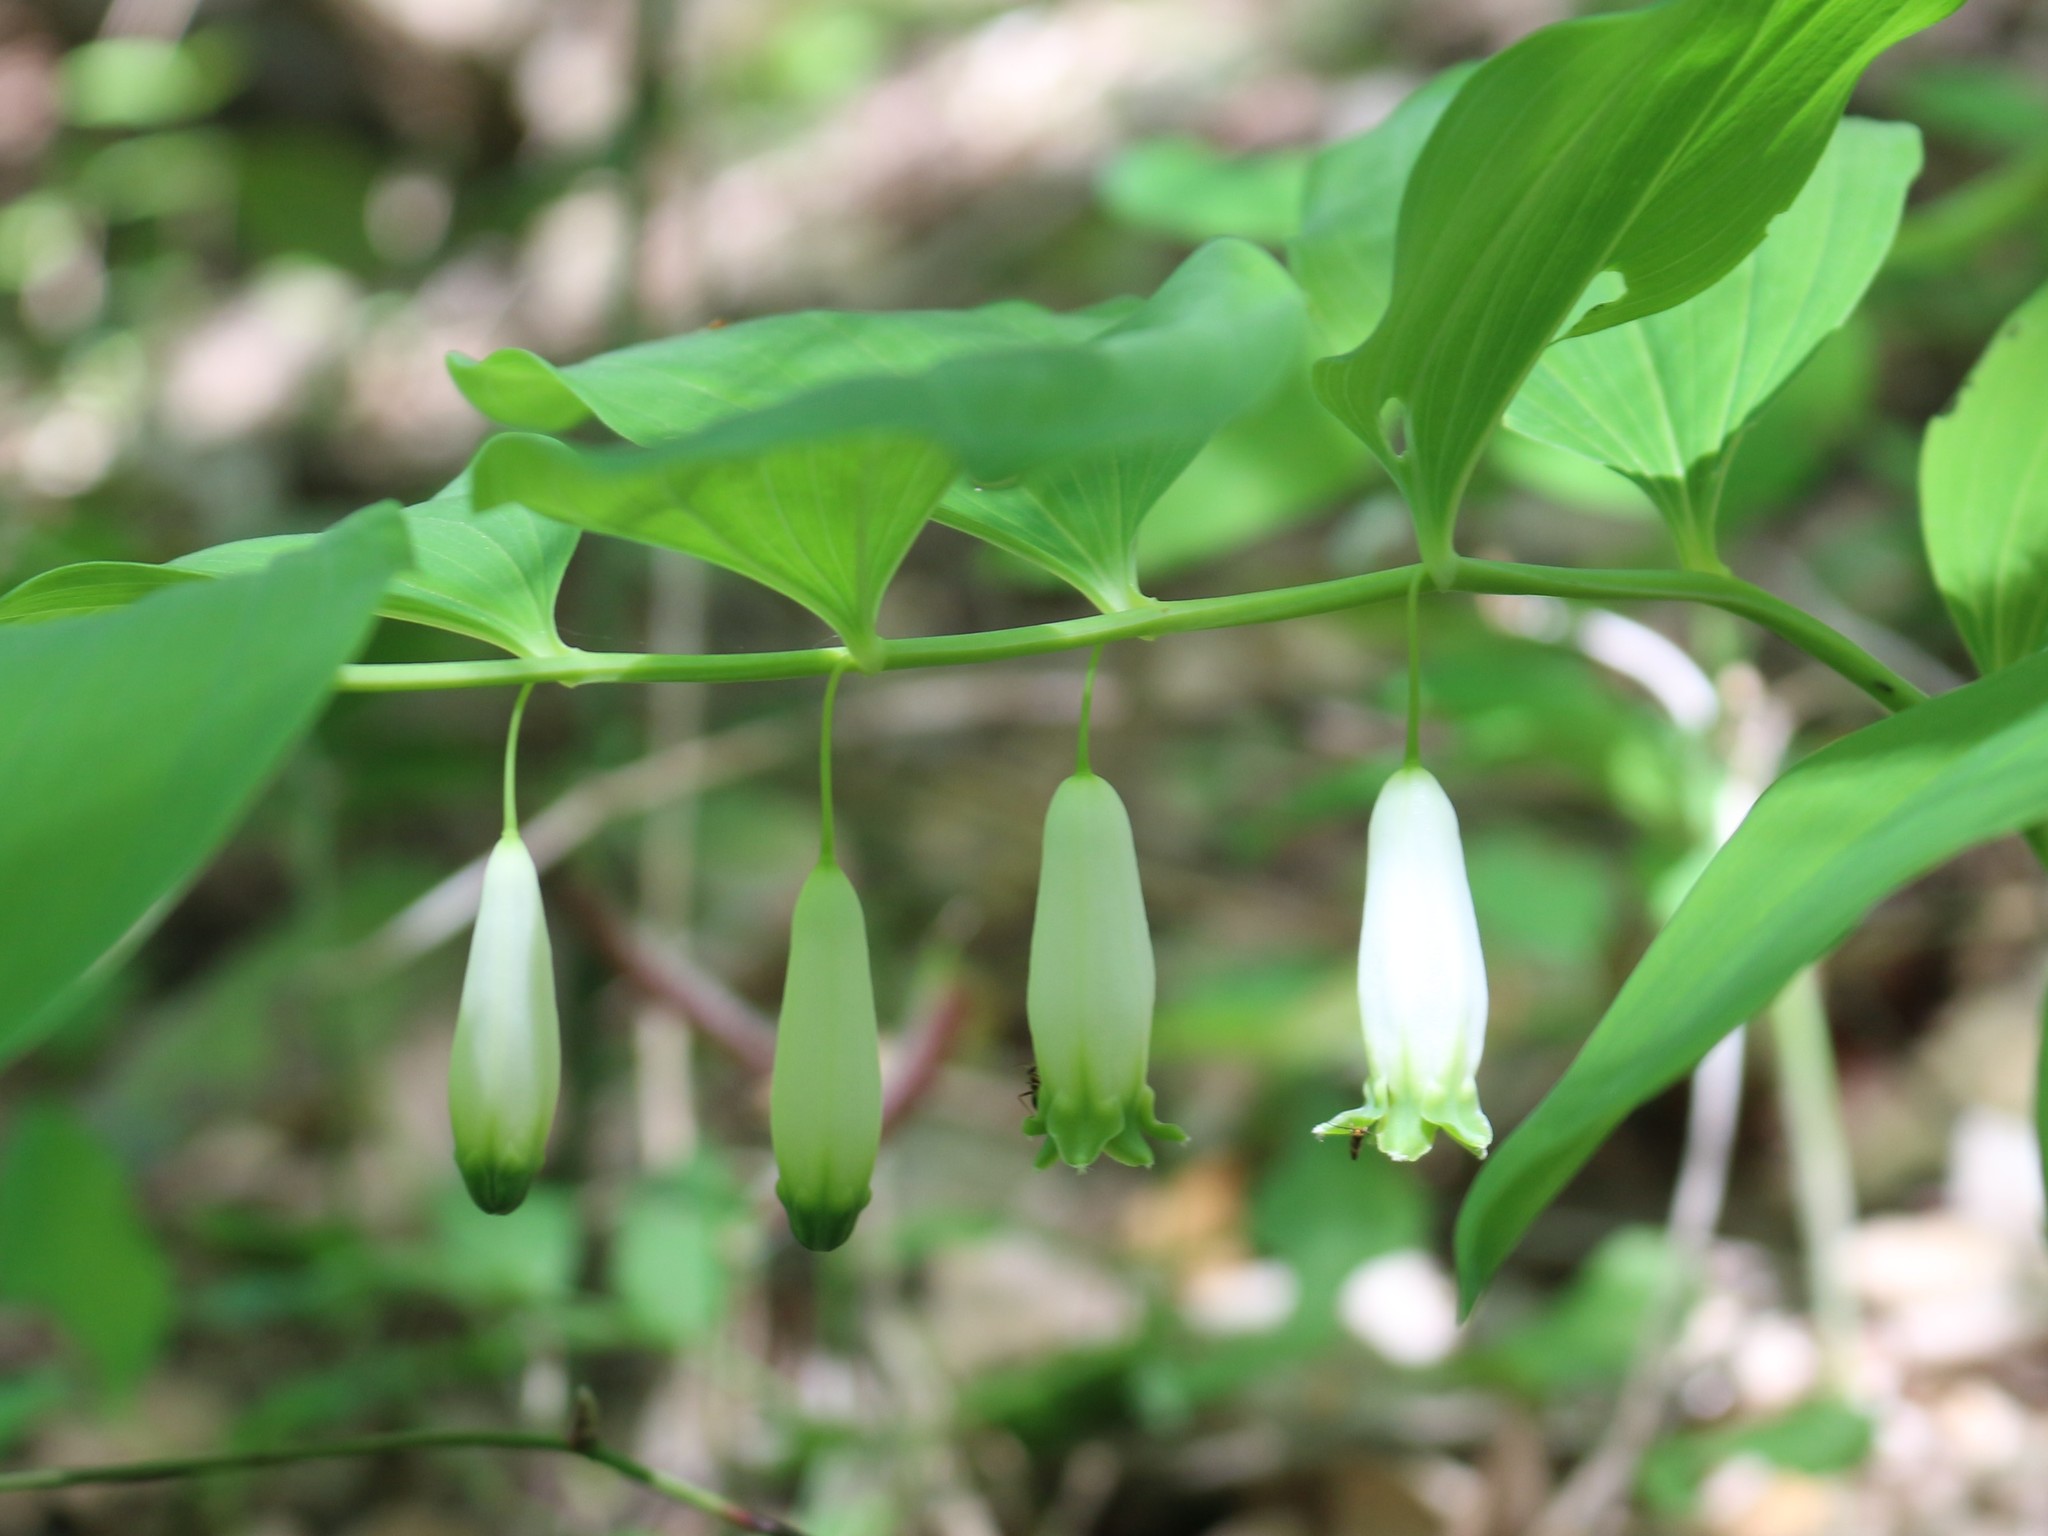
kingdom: Plantae
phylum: Tracheophyta
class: Liliopsida
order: Asparagales
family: Asparagaceae
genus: Polygonatum
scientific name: Polygonatum odoratum
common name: Angular solomon's-seal
